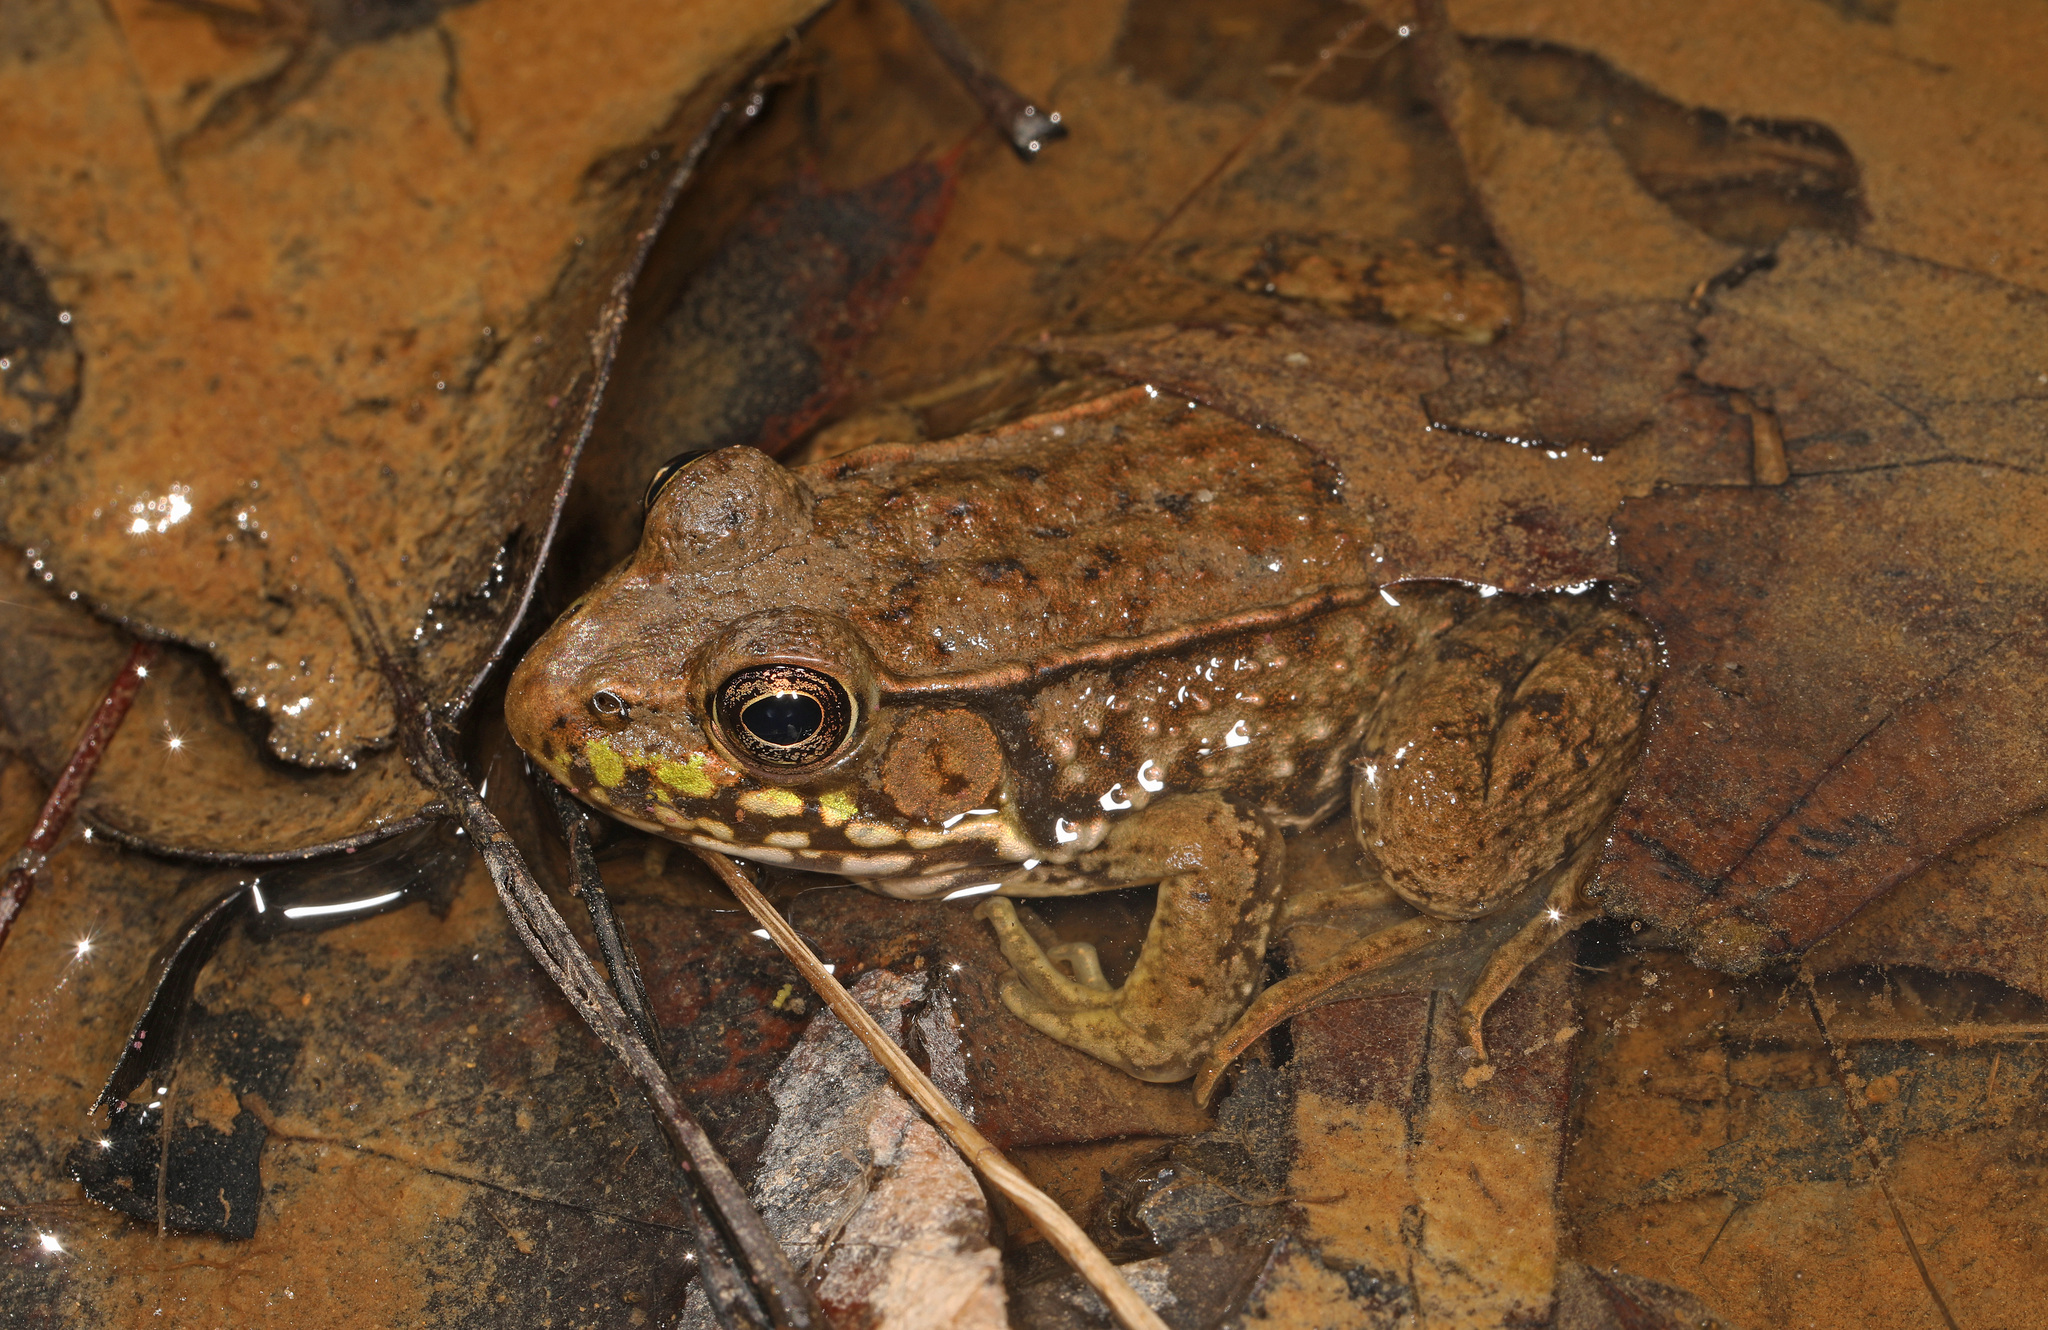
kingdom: Animalia
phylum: Chordata
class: Amphibia
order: Anura
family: Ranidae
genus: Lithobates
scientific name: Lithobates clamitans
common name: Green frog
